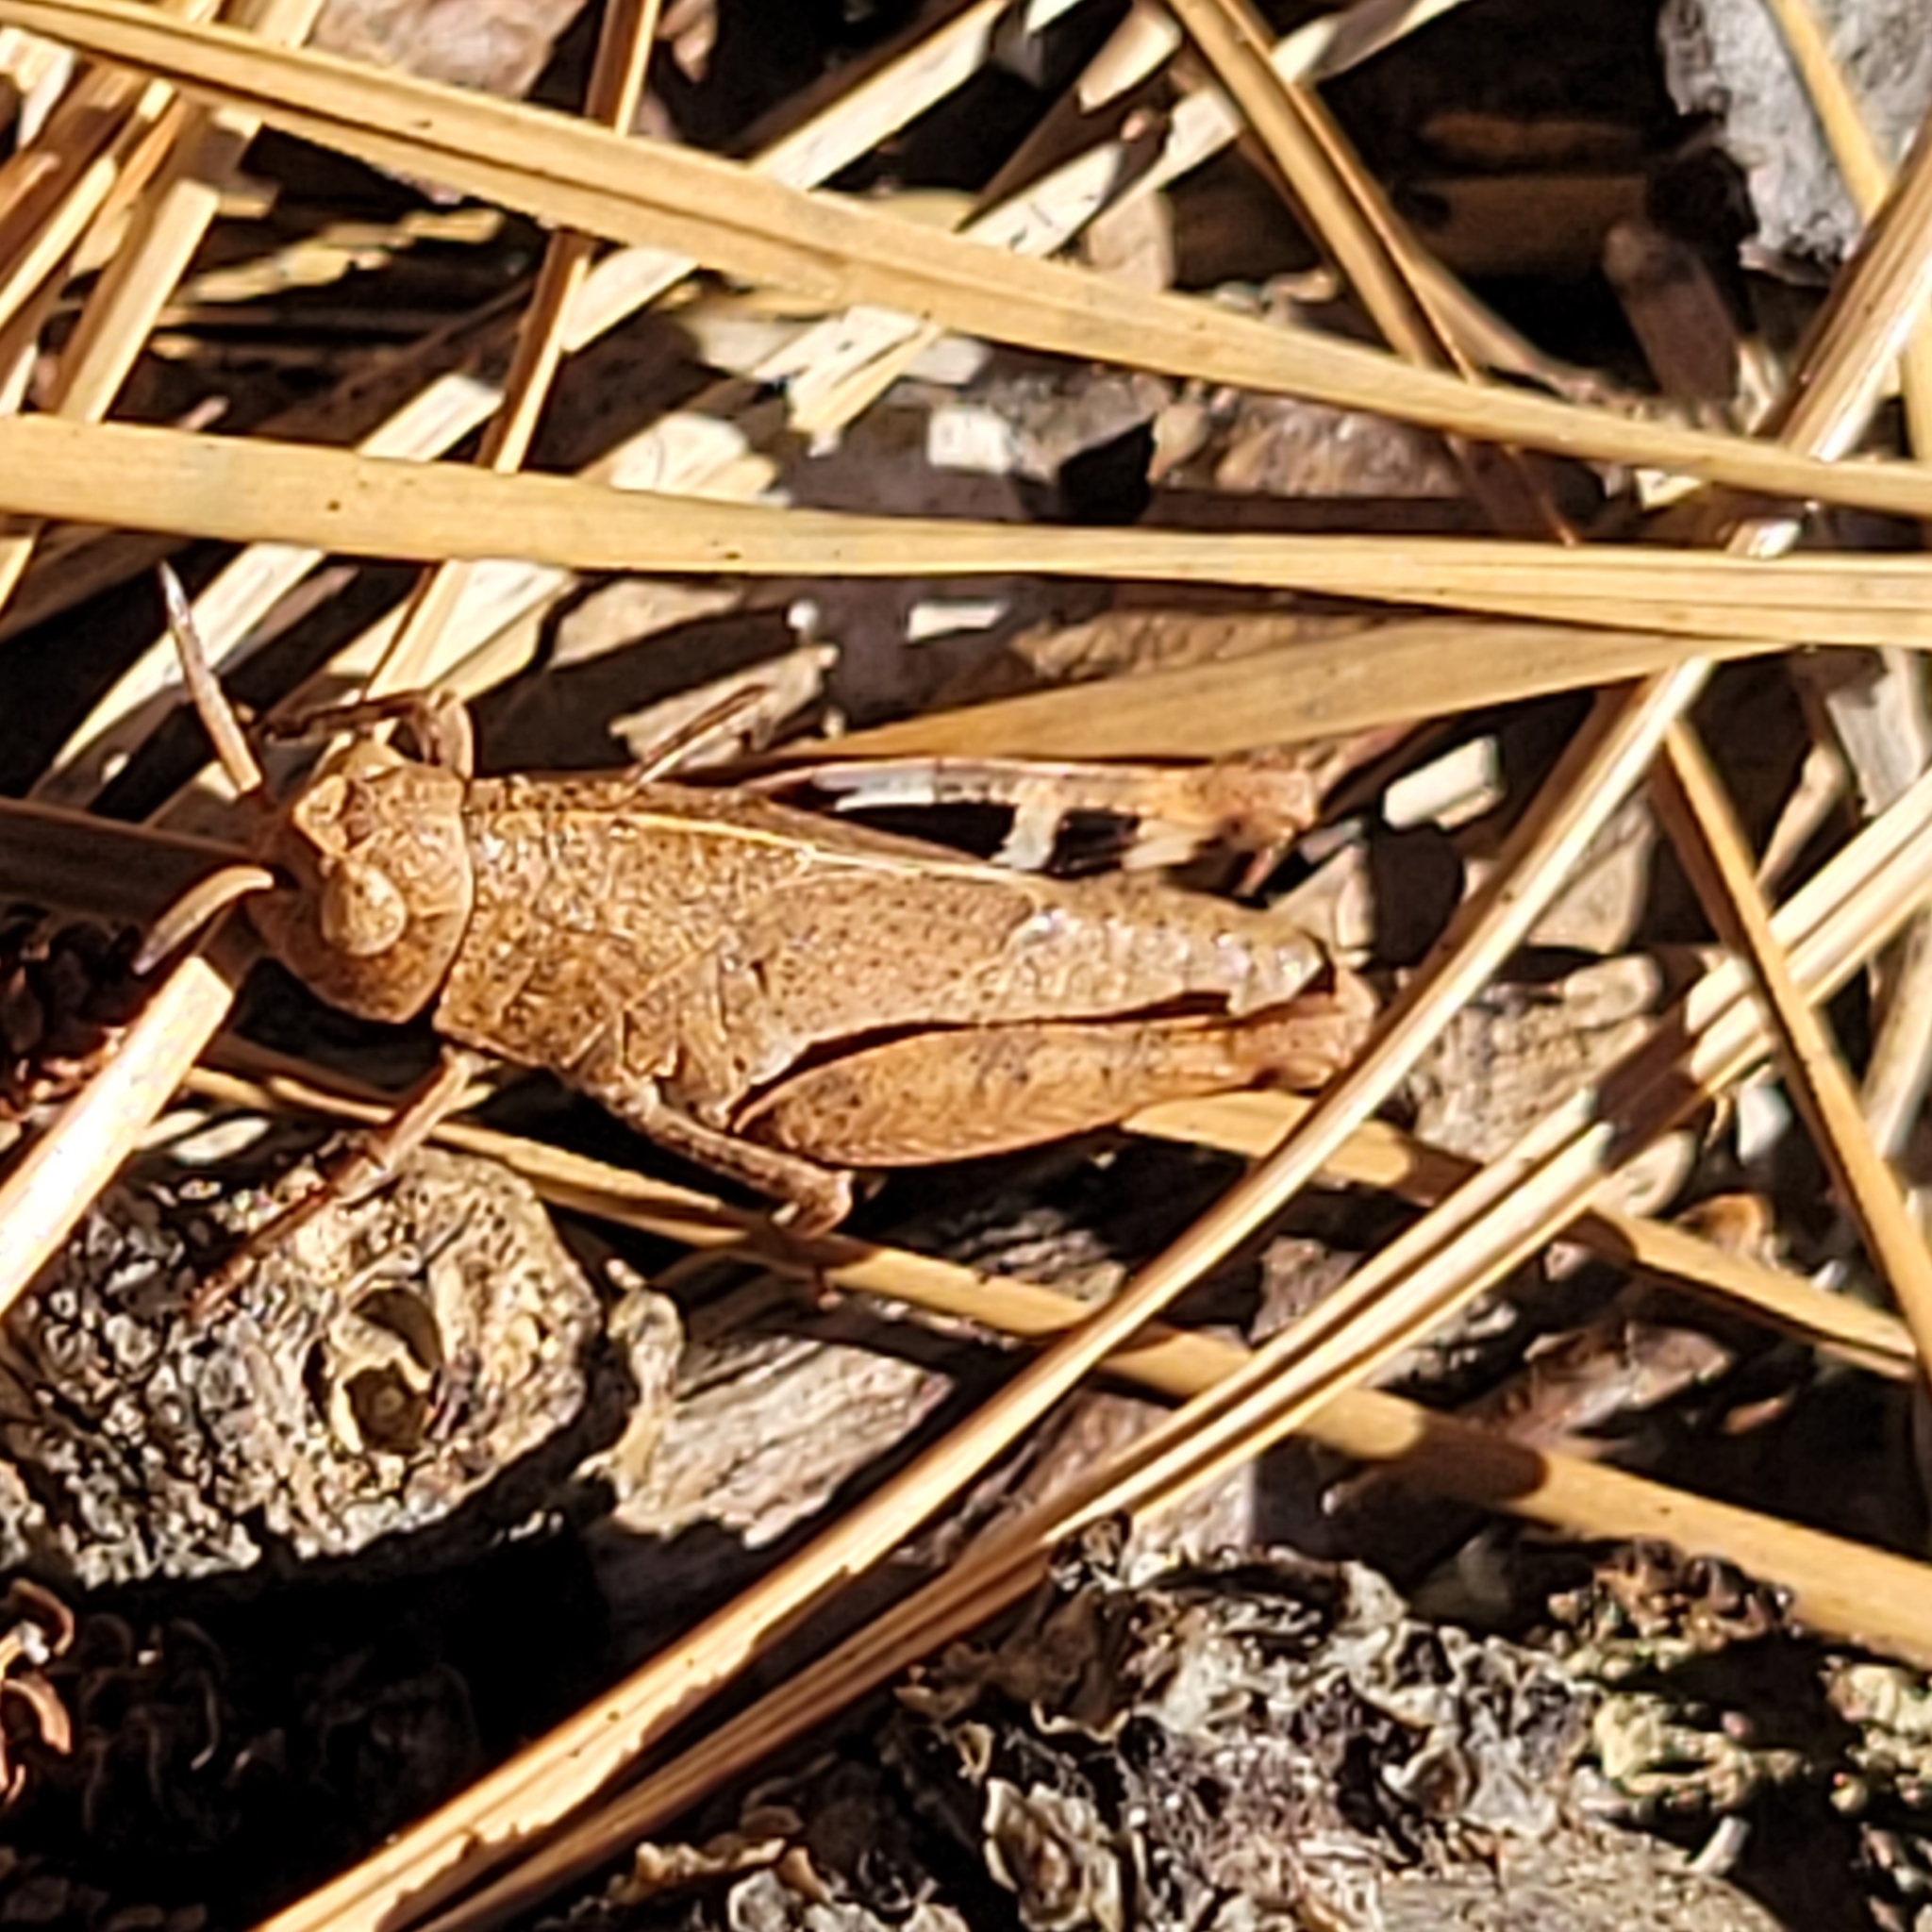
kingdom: Animalia
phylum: Arthropoda
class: Insecta
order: Orthoptera
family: Acrididae
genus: Arphia
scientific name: Arphia sulphurea
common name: Spring yellow-winged locust
